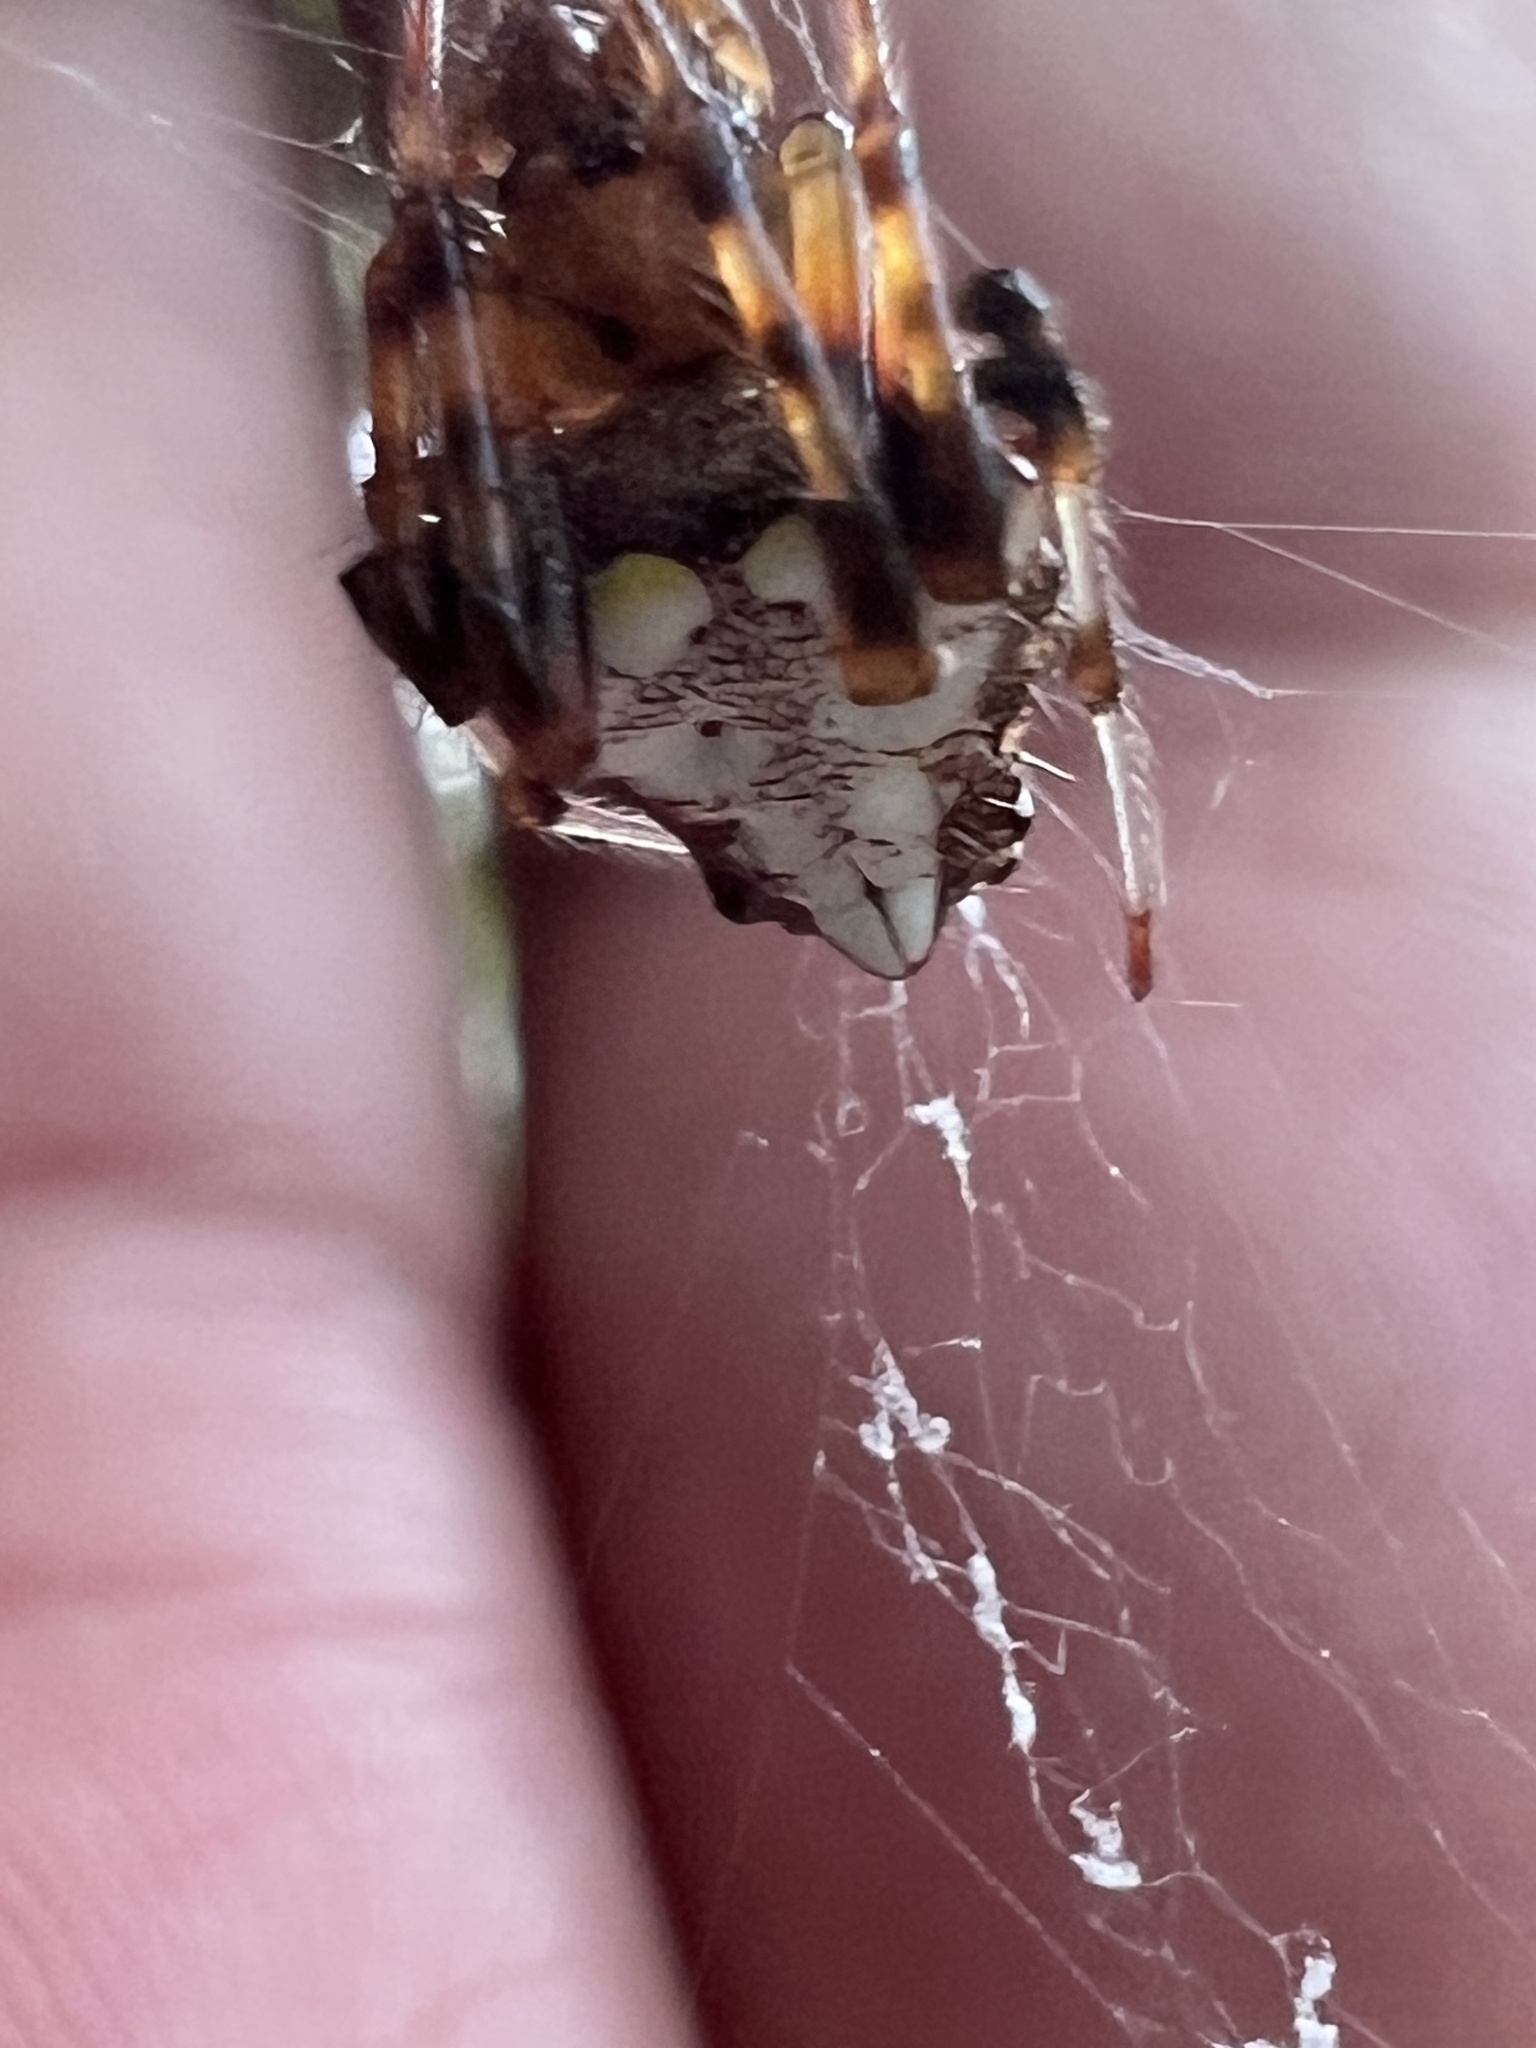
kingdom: Animalia
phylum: Arthropoda
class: Arachnida
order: Araneae
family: Araneidae
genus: Verrucosa
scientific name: Verrucosa arenata
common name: Orb weavers
